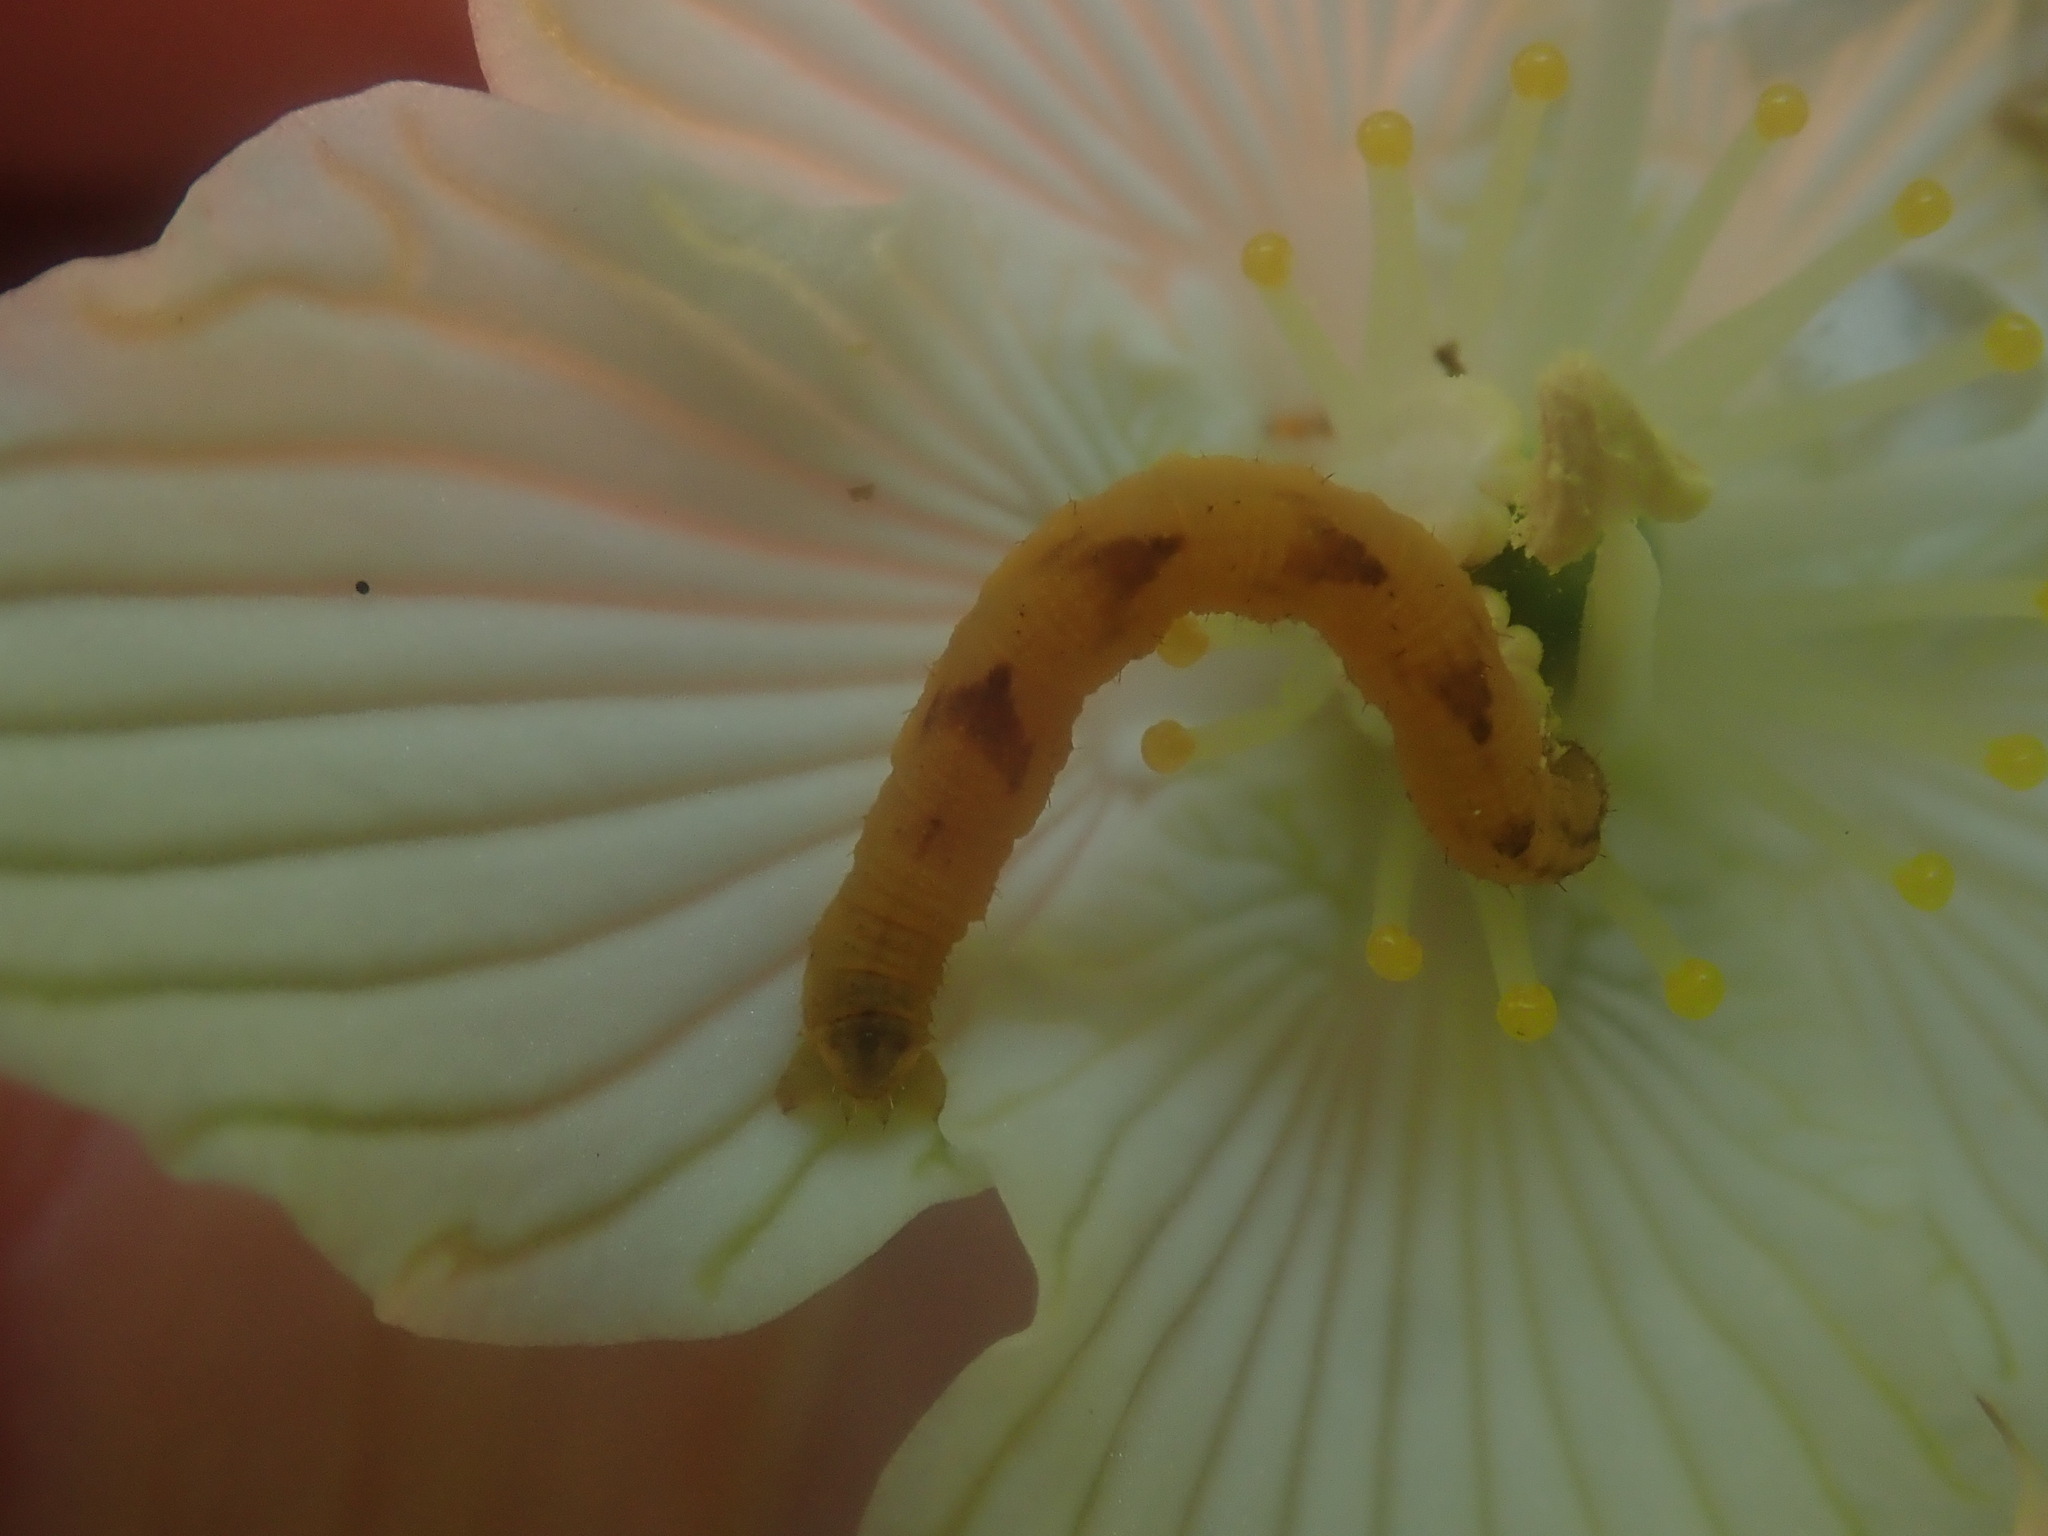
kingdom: Animalia
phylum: Arthropoda
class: Insecta
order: Lepidoptera
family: Geometridae
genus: Eupithecia
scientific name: Eupithecia
